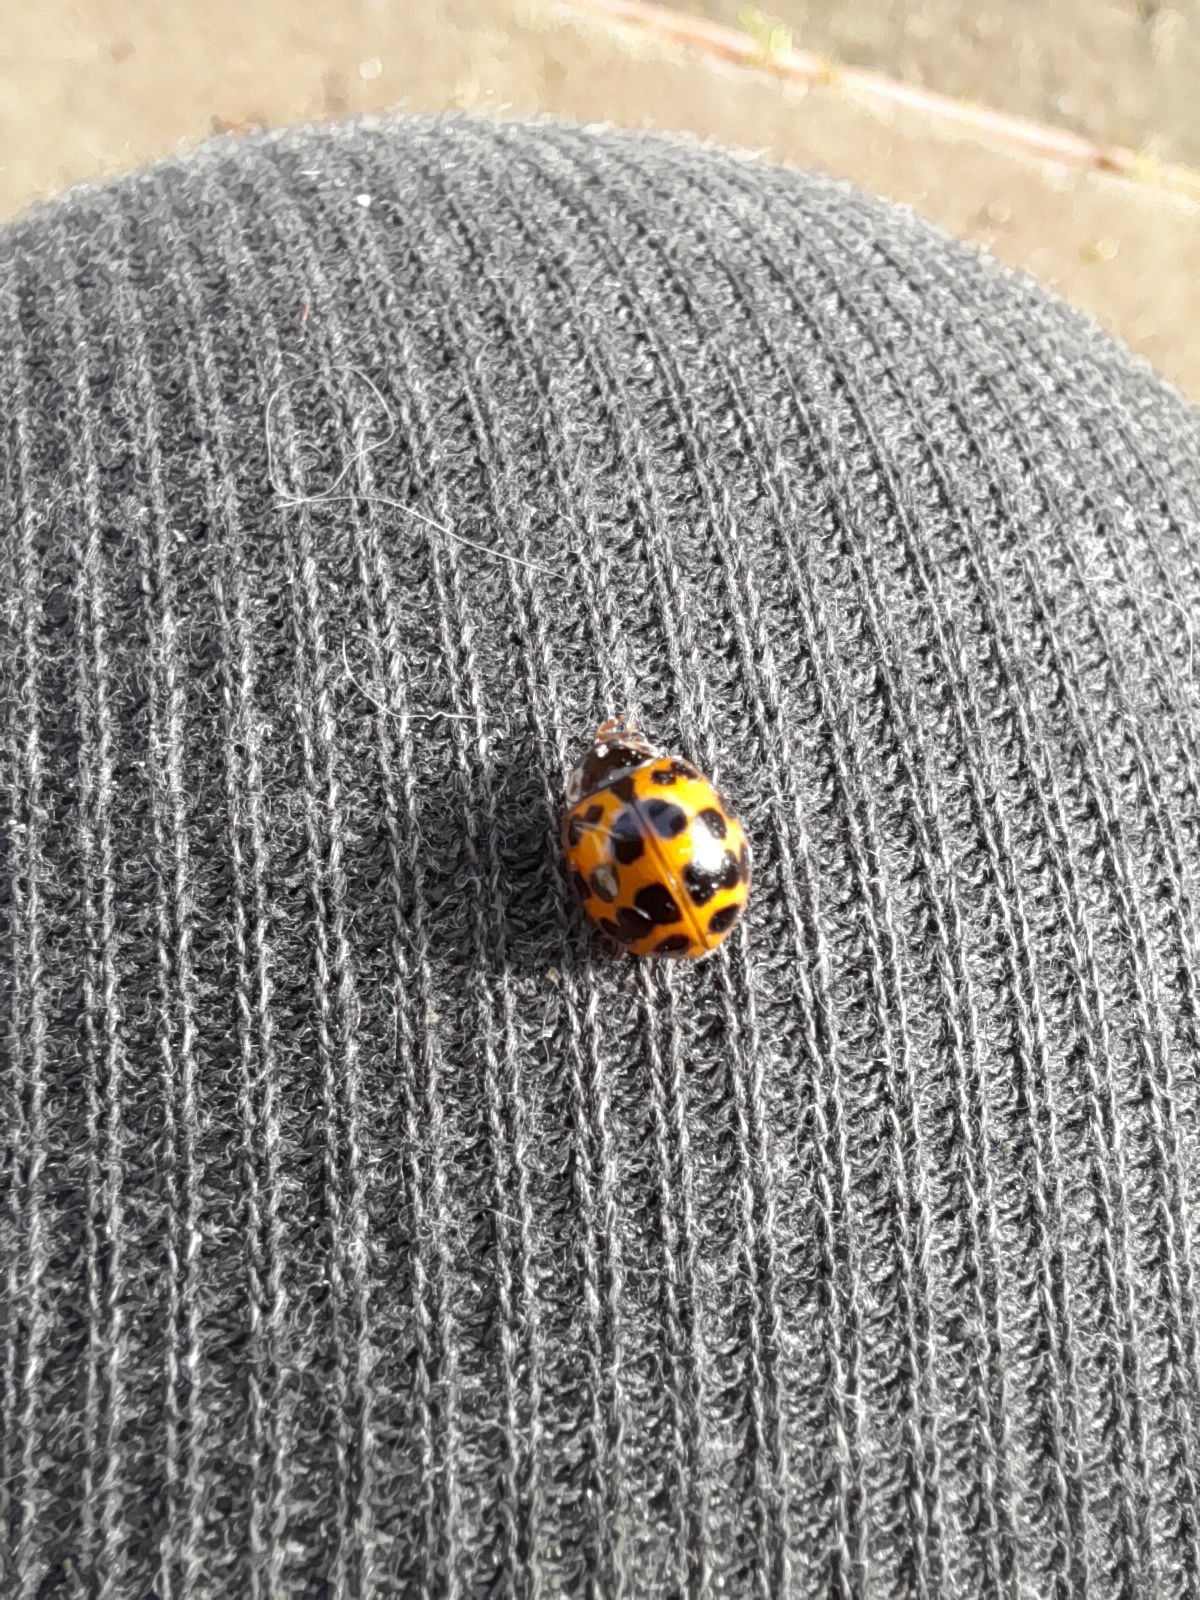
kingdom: Animalia
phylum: Arthropoda
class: Insecta
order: Coleoptera
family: Coccinellidae
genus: Harmonia
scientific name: Harmonia axyridis
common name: Harlequin ladybird
